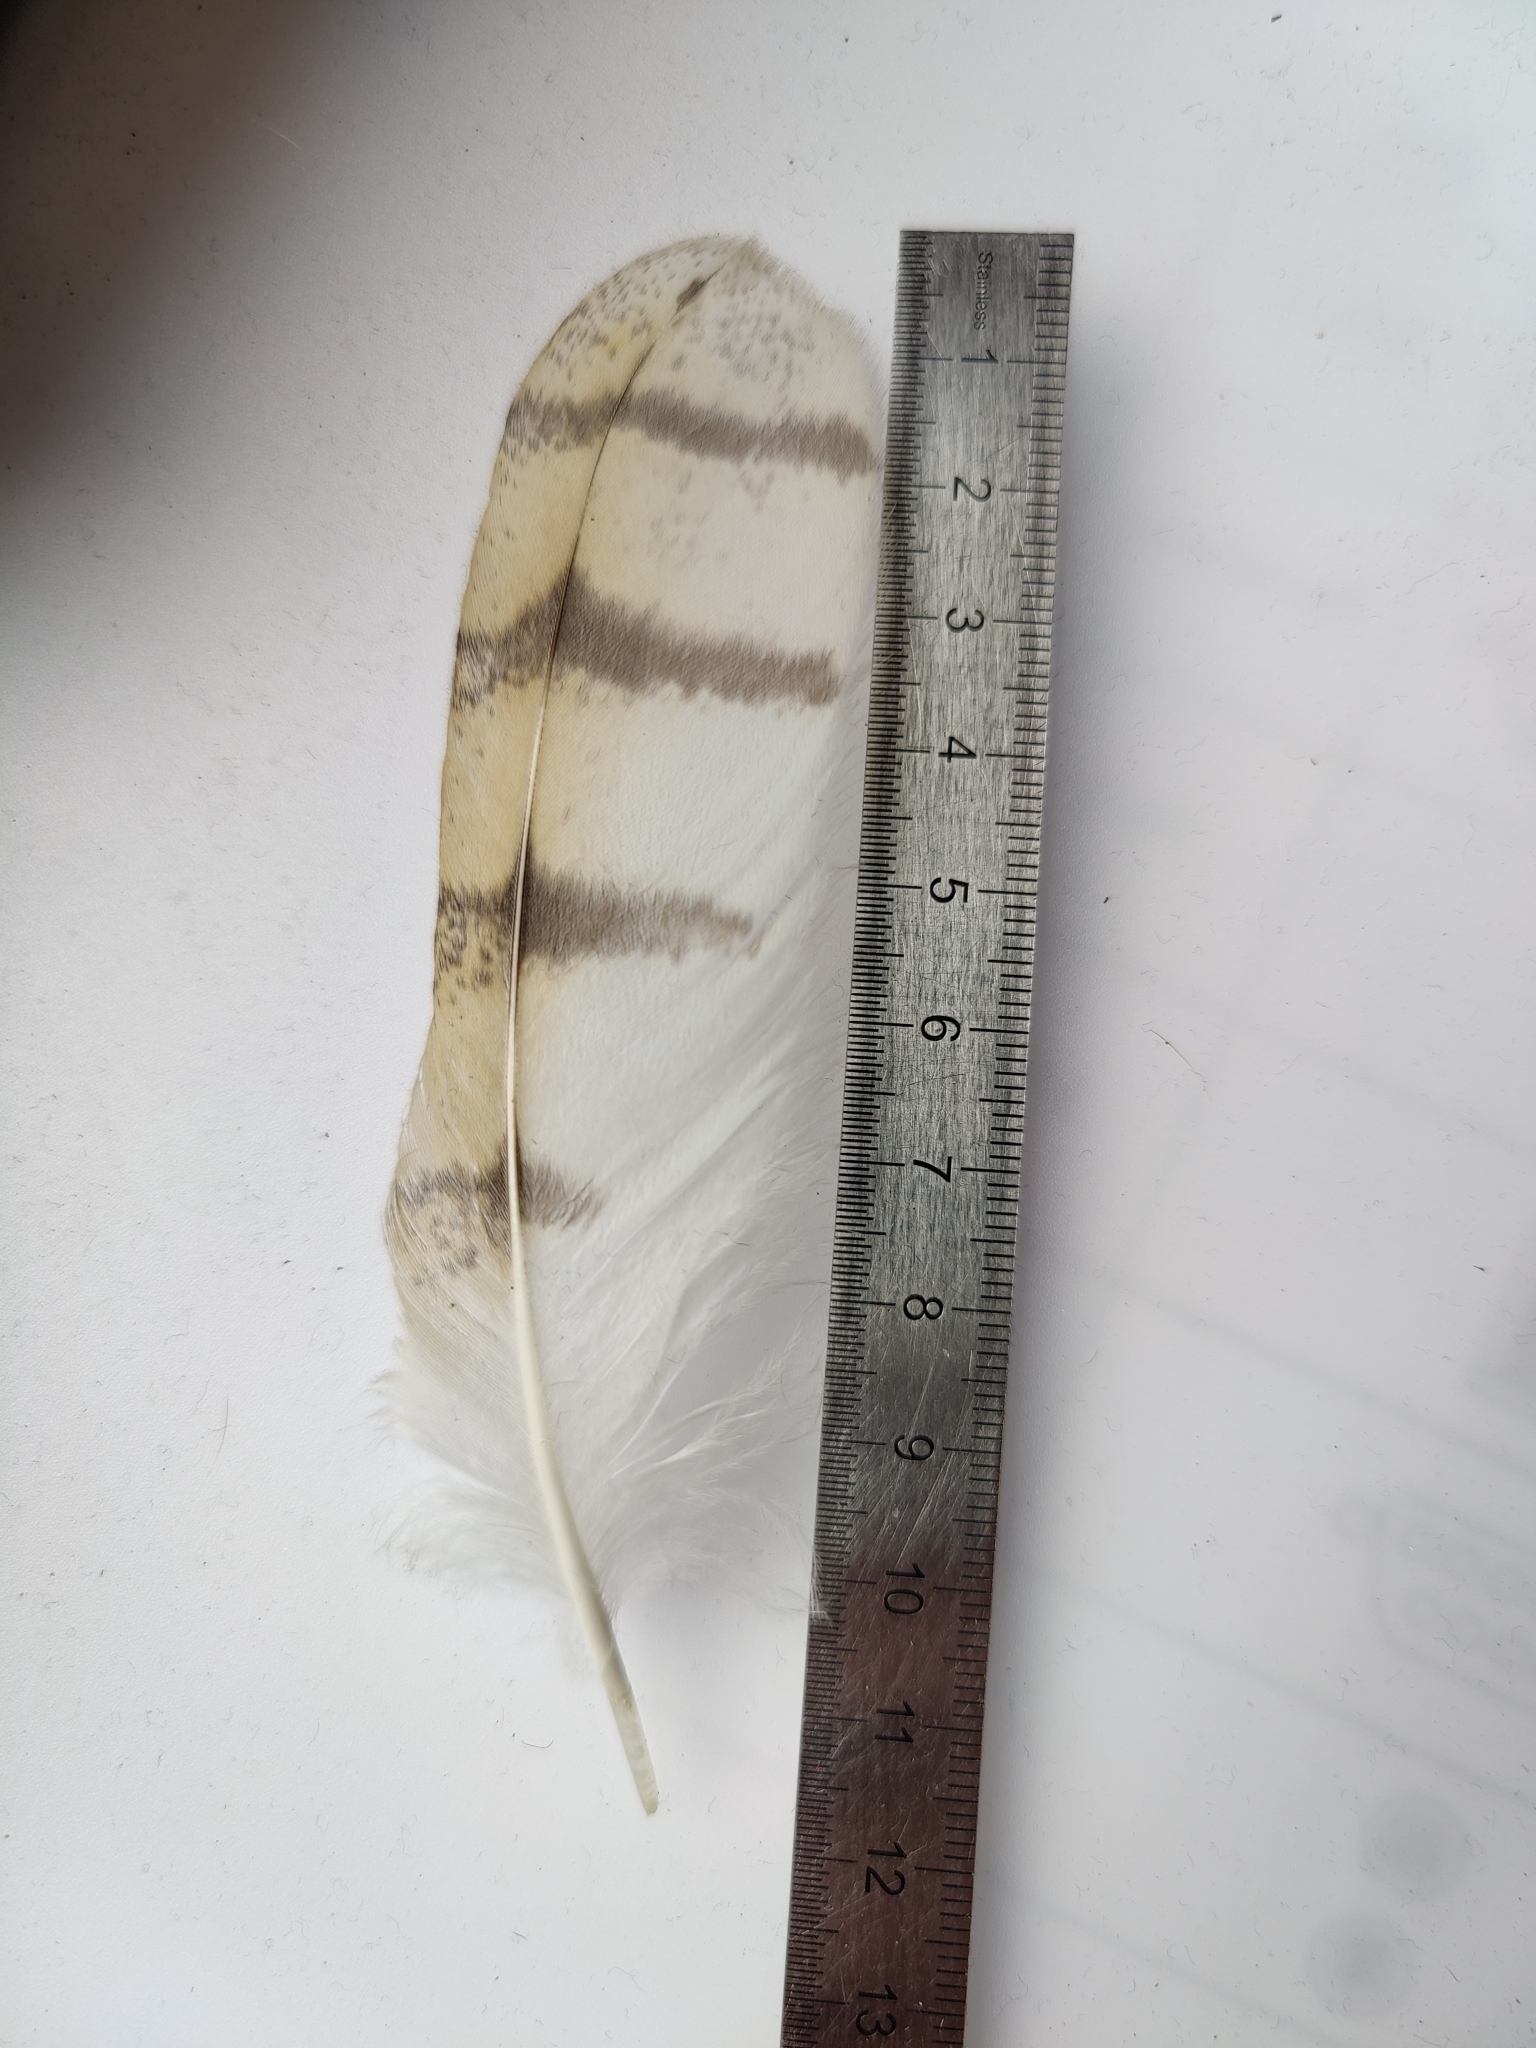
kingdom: Animalia
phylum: Chordata
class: Aves
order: Strigiformes
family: Tytonidae
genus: Tyto
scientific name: Tyto alba
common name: Barn owl
